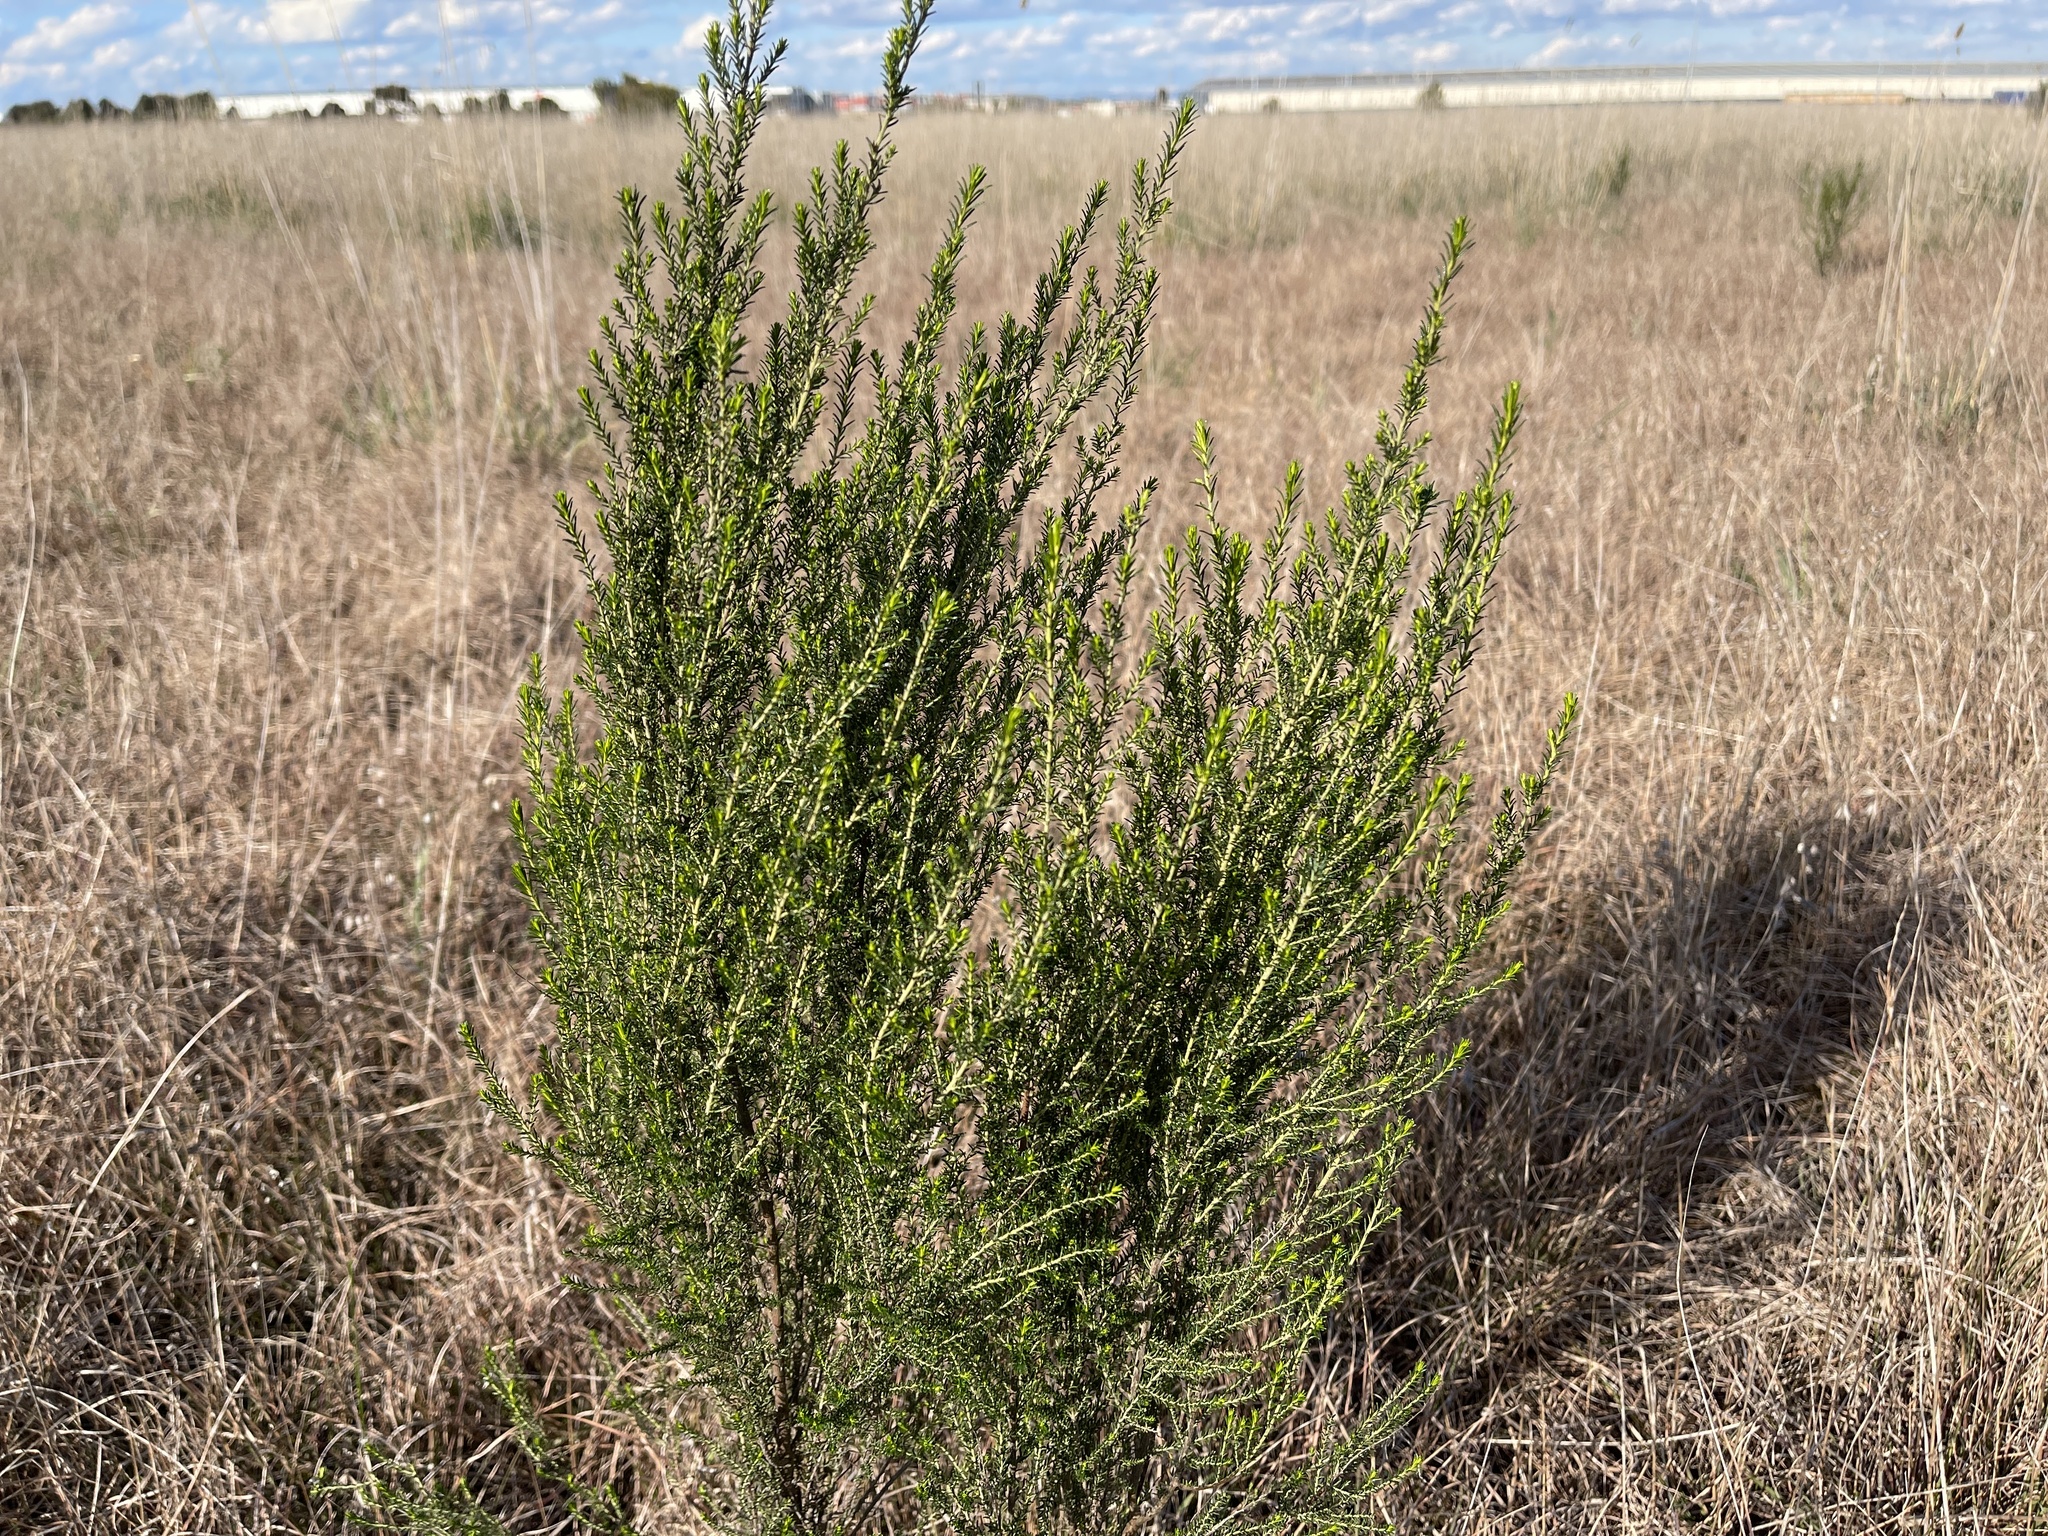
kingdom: Plantae
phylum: Tracheophyta
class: Magnoliopsida
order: Asterales
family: Asteraceae
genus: Cassinia
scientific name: Cassinia sifton
